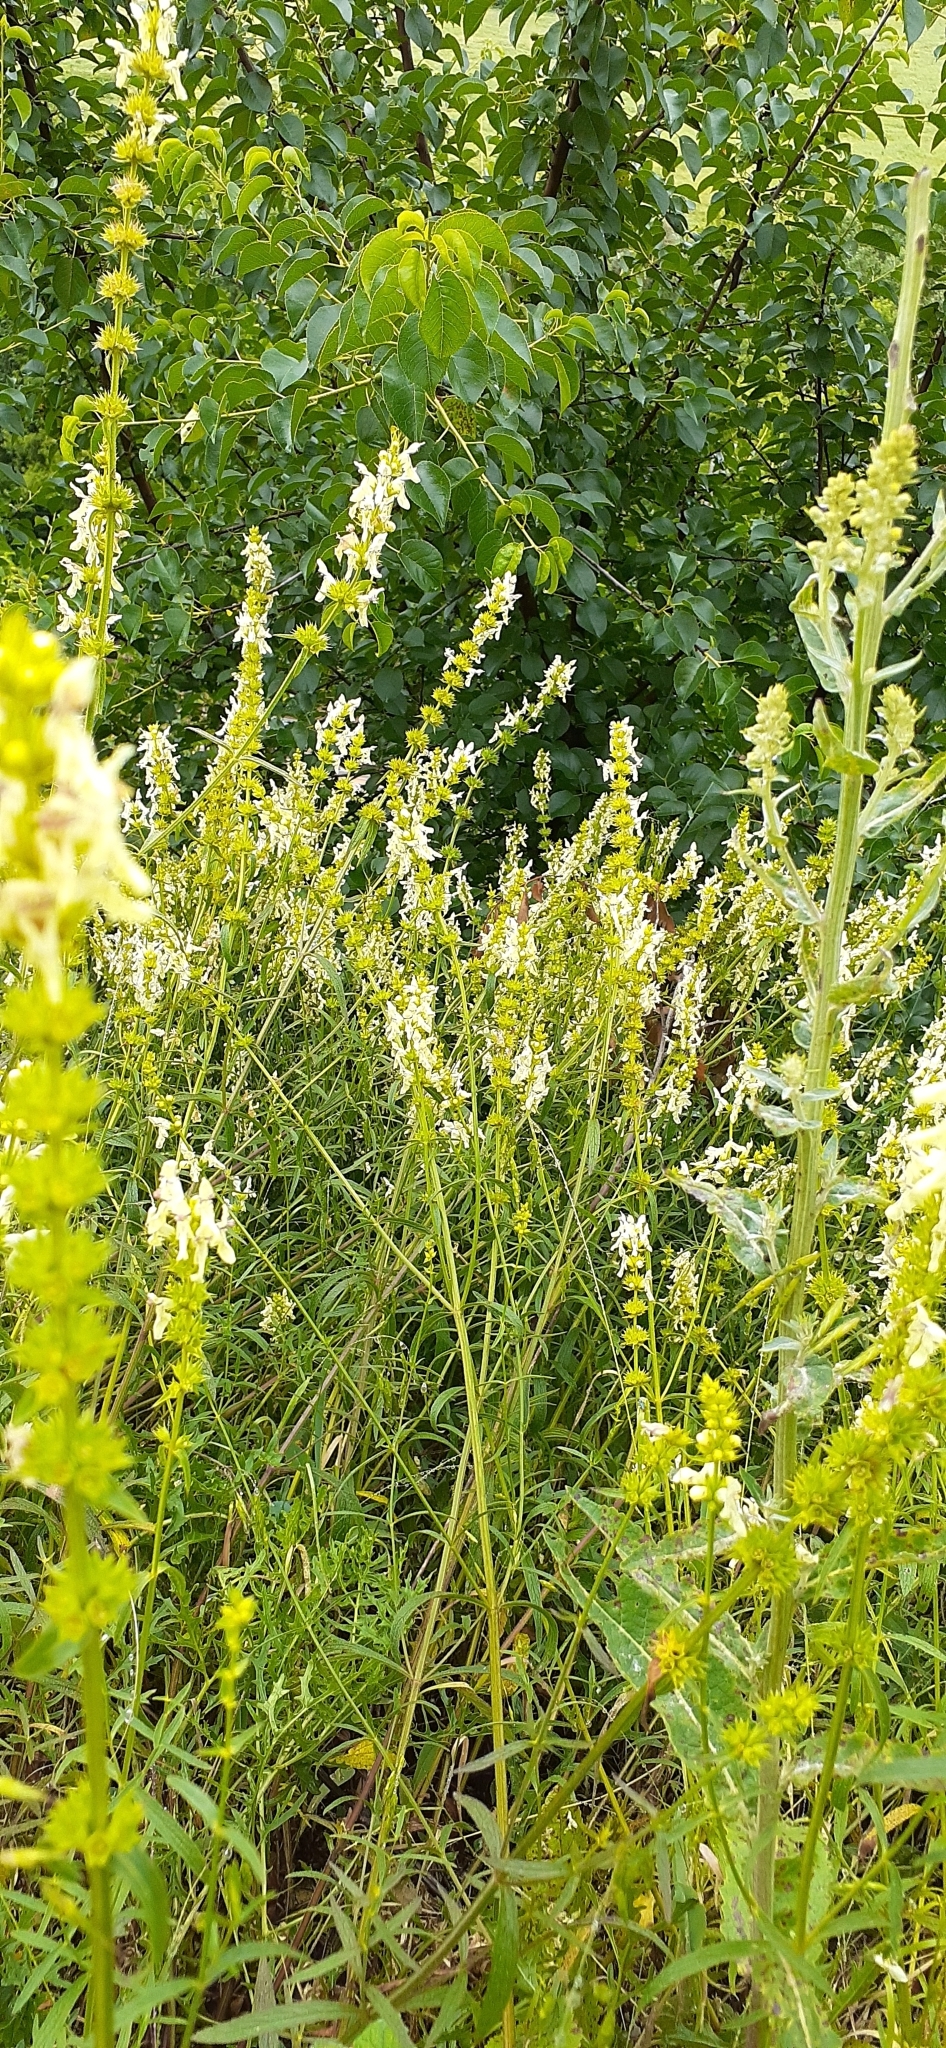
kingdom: Plantae
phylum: Tracheophyta
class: Magnoliopsida
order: Lamiales
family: Lamiaceae
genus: Stachys
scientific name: Stachys recta
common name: Perennial yellow-woundwort
